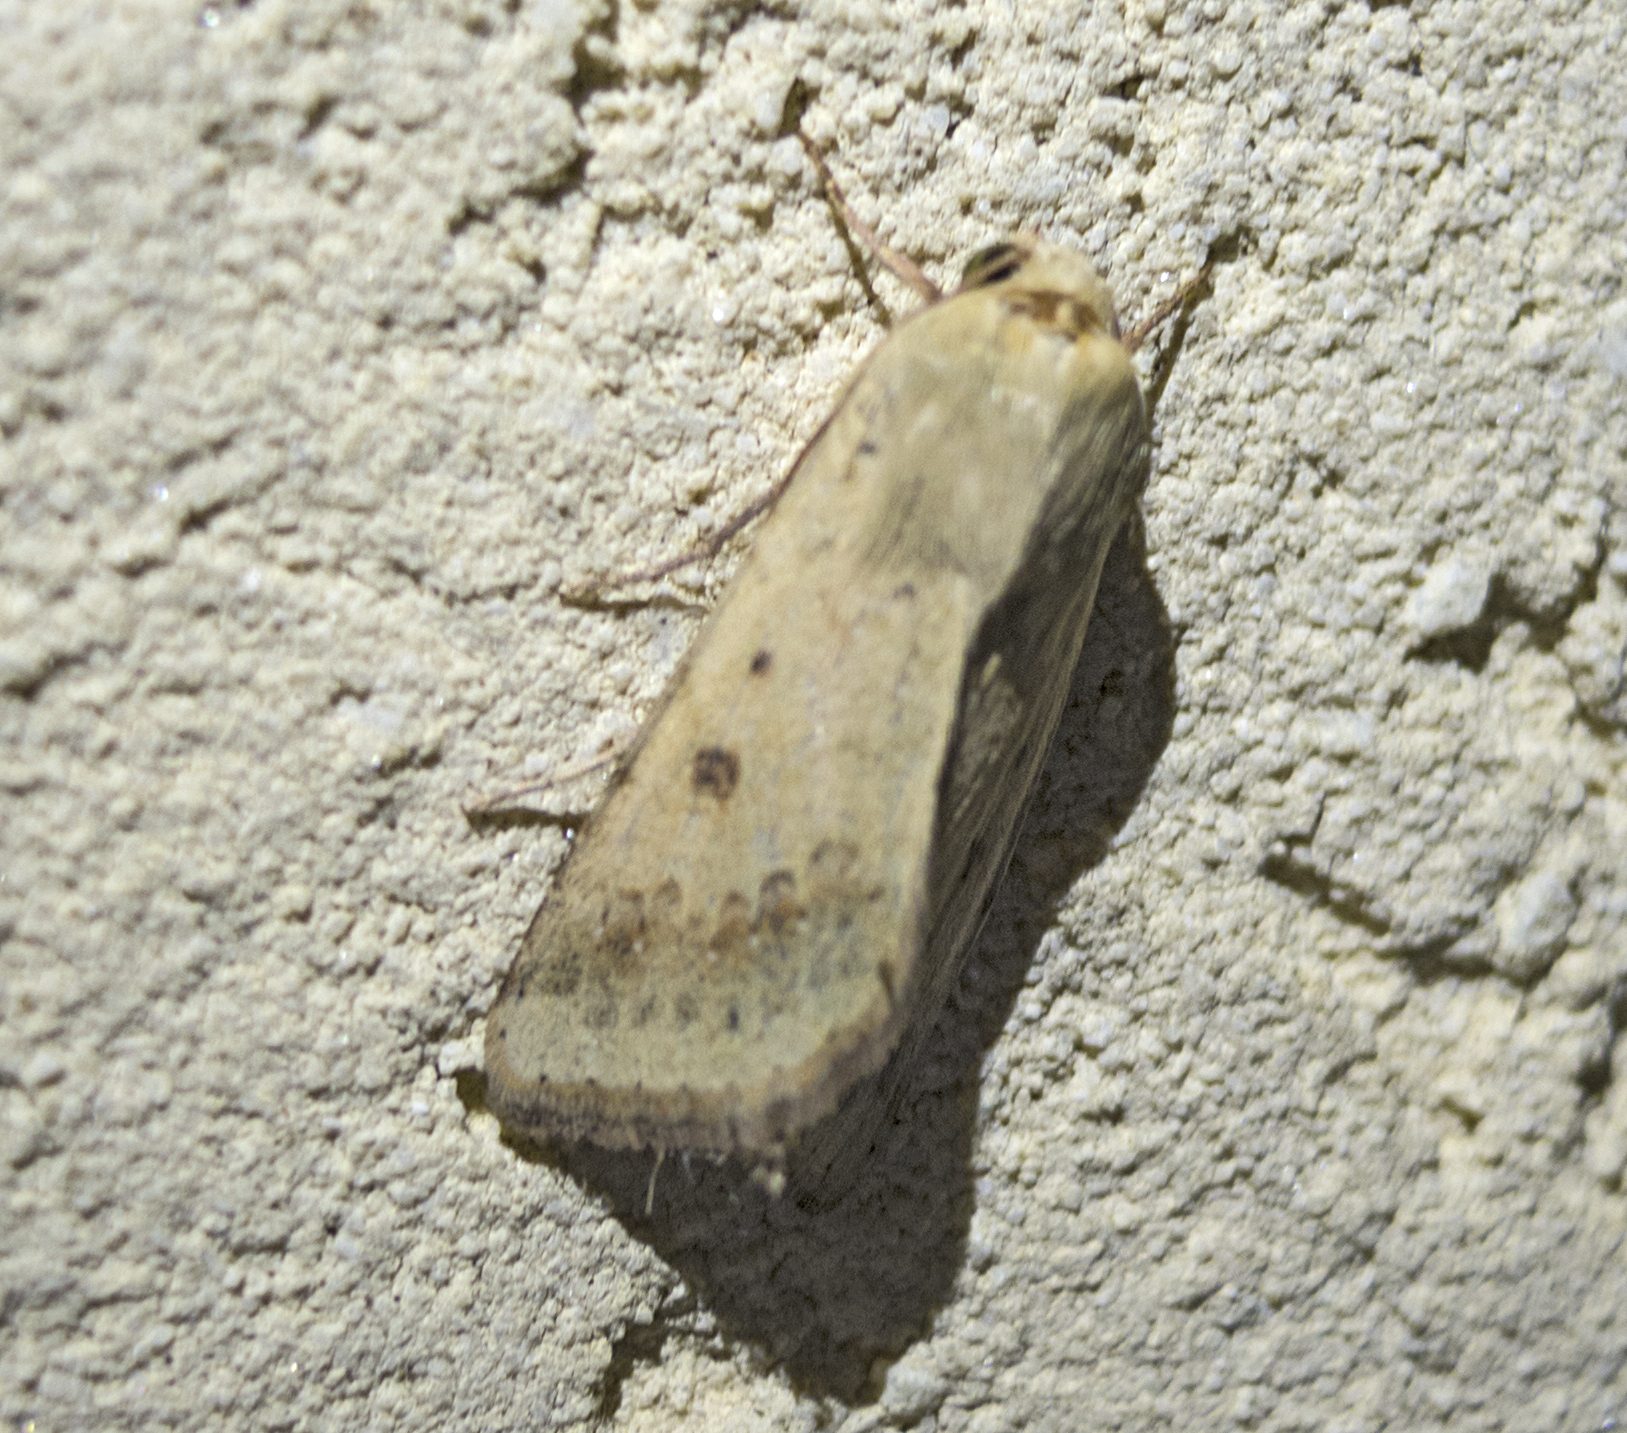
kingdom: Animalia
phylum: Arthropoda
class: Insecta
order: Lepidoptera
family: Noctuidae
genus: Helicoverpa
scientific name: Helicoverpa armigera
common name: Cotton bollworm
